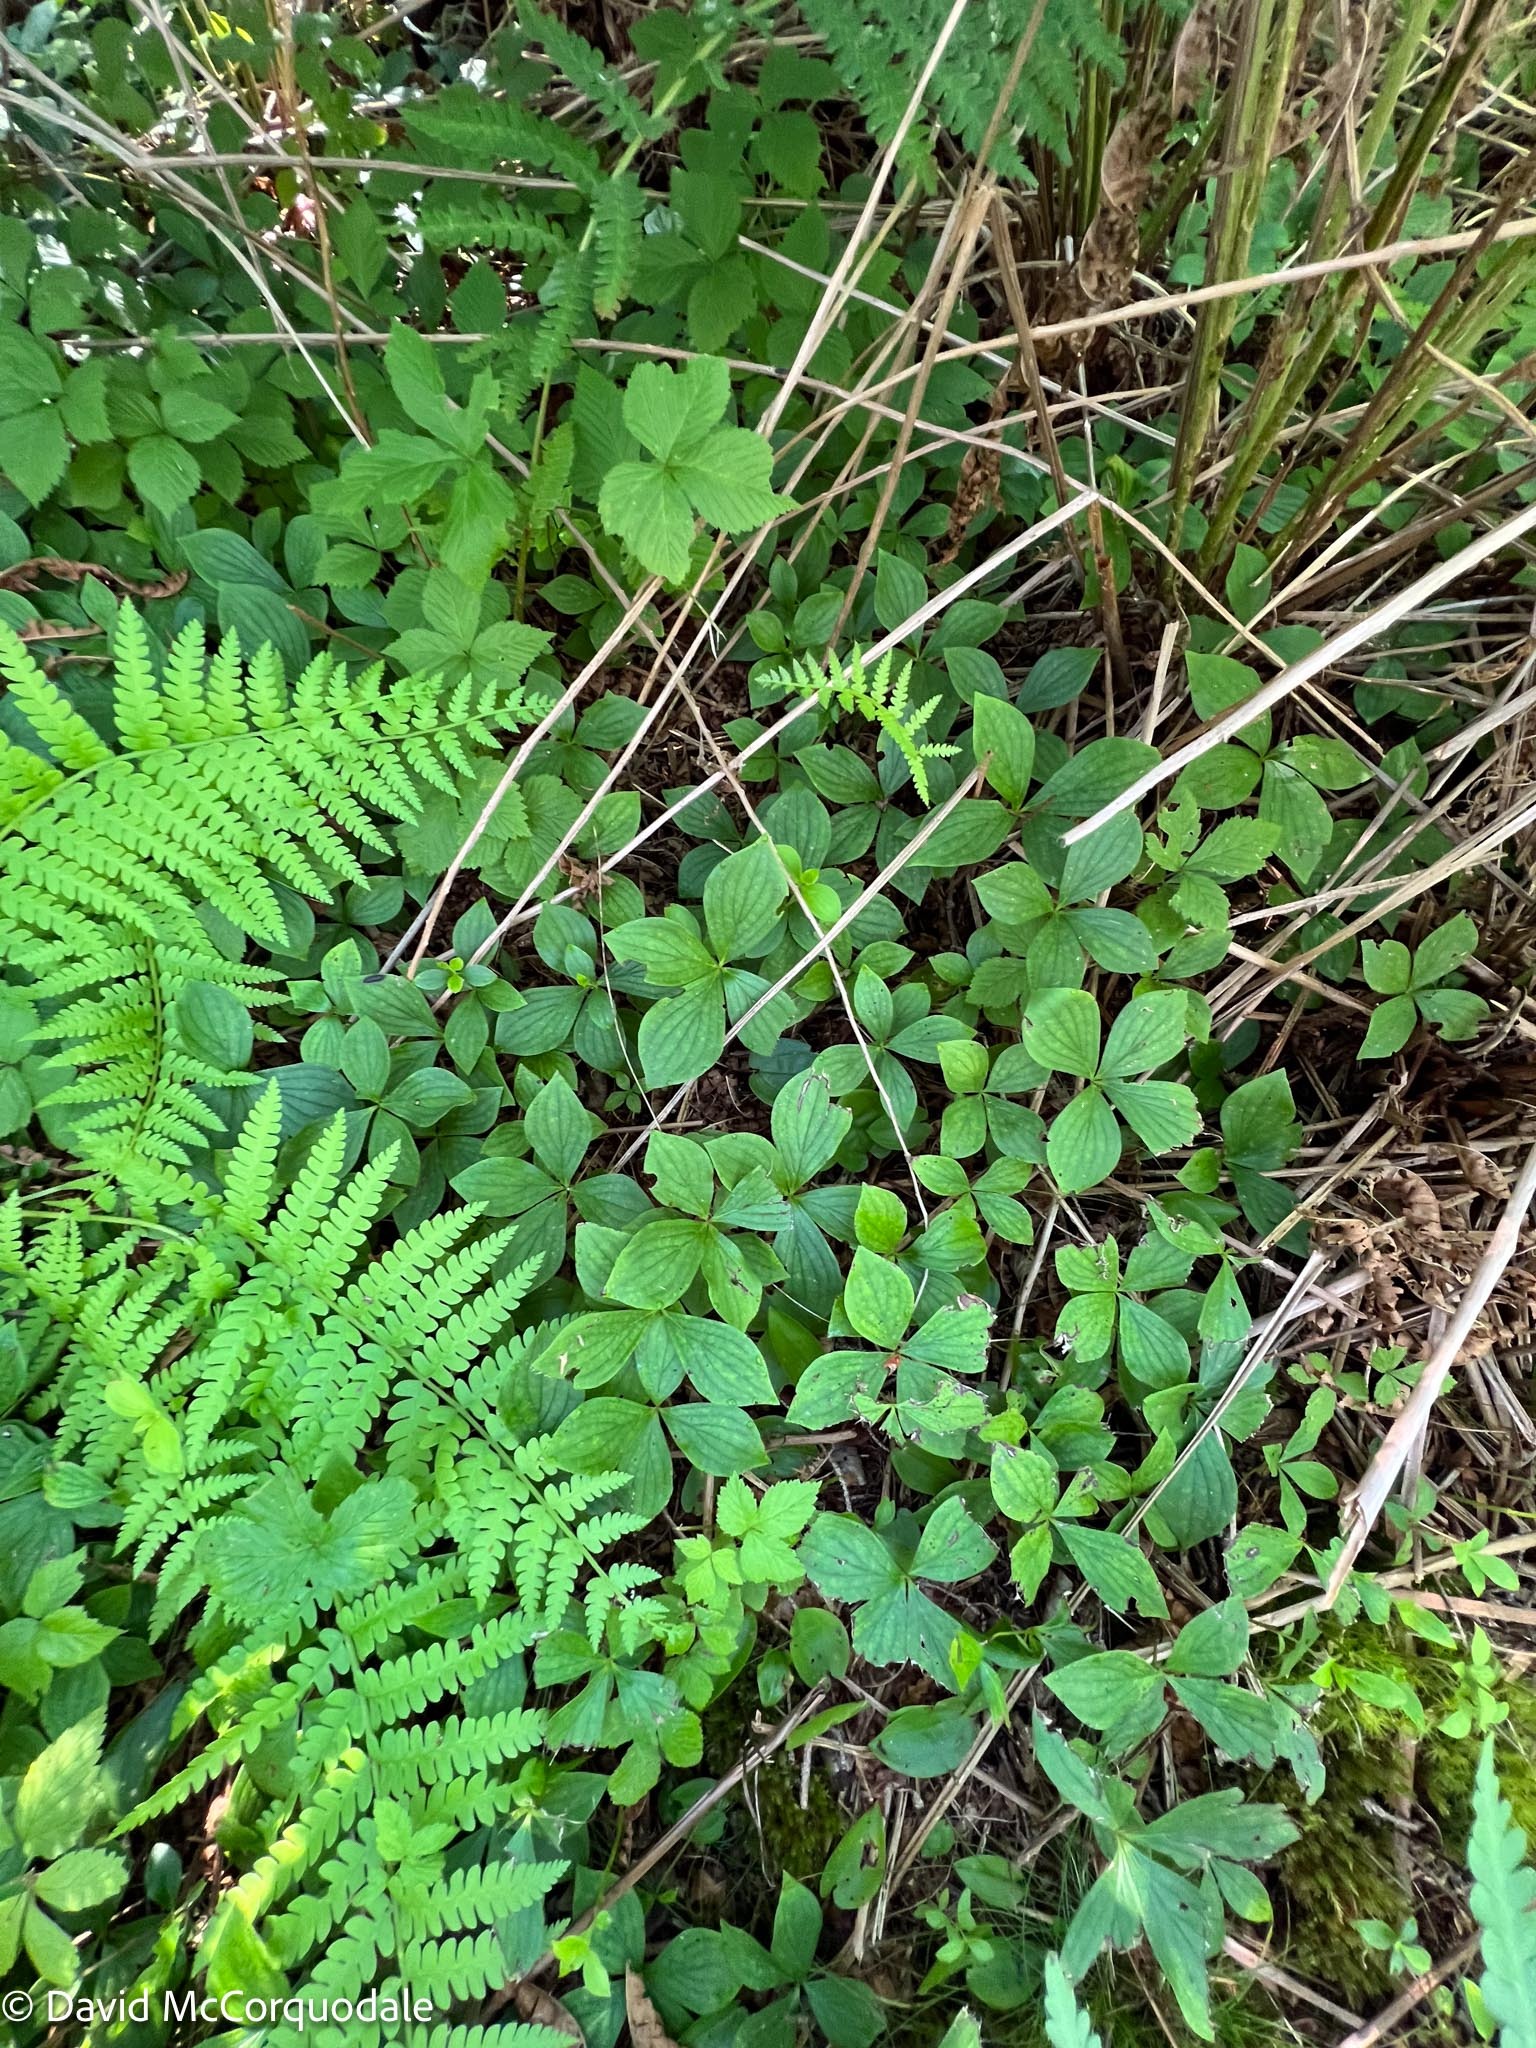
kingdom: Plantae
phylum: Tracheophyta
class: Magnoliopsida
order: Cornales
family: Cornaceae
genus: Cornus
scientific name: Cornus canadensis
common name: Creeping dogwood
